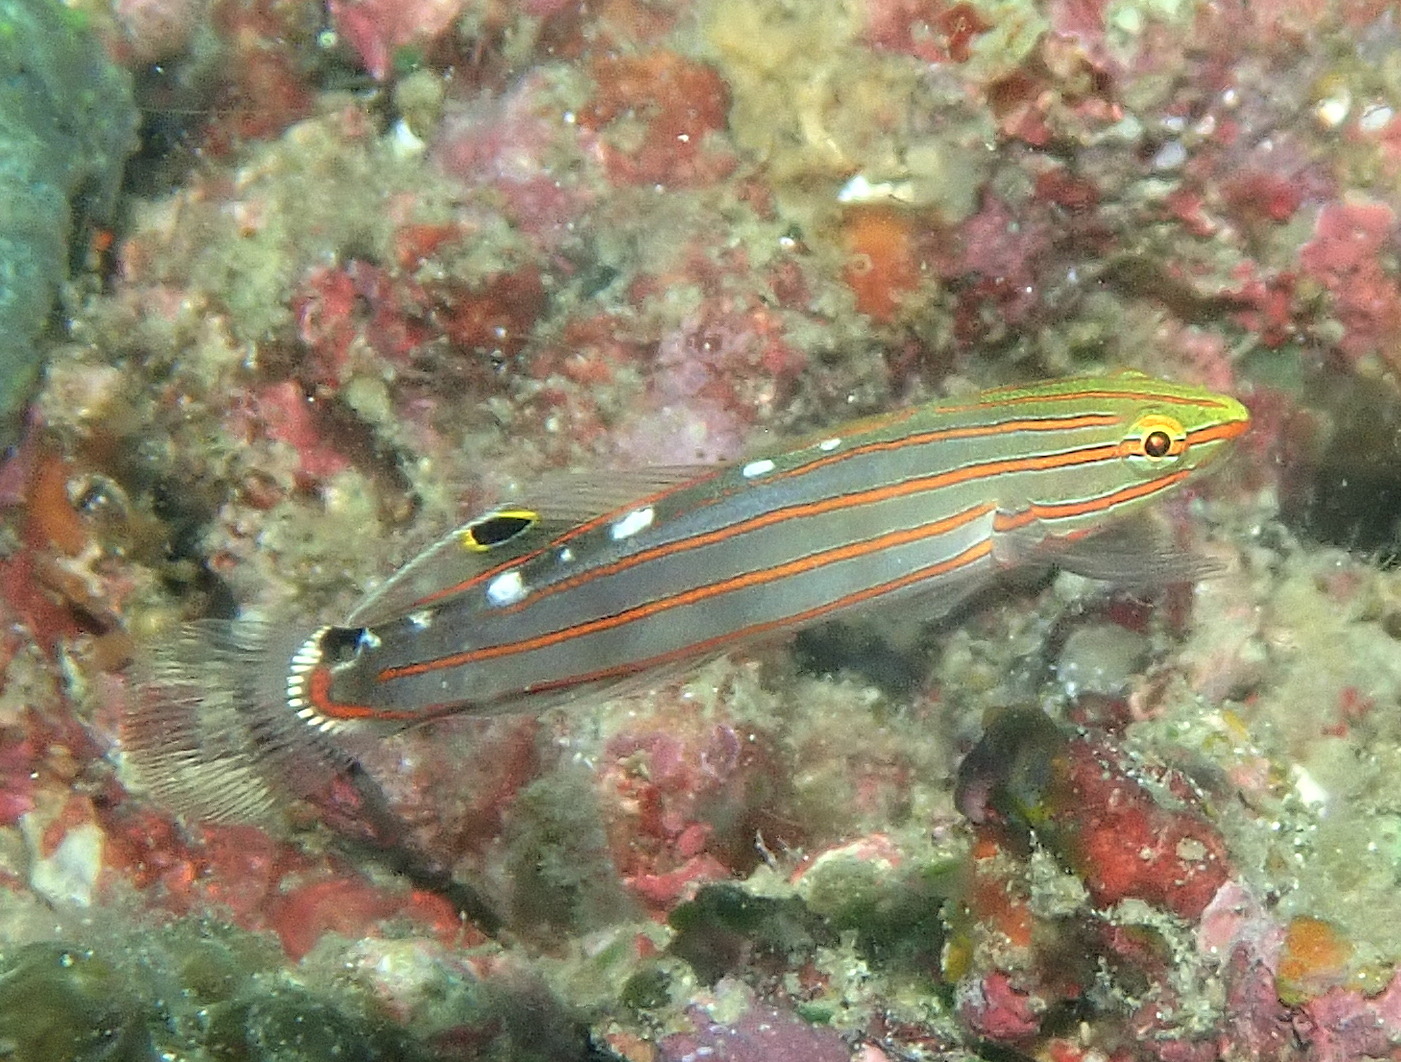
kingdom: Animalia
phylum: Chordata
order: Perciformes
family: Gobiidae
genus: Koumansetta
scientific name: Koumansetta rainfordi
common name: Old glory
